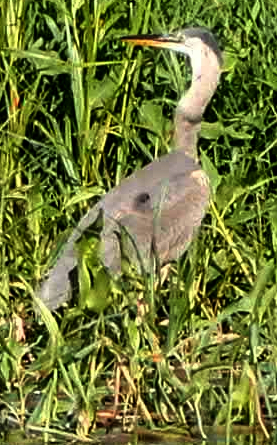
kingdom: Animalia
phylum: Chordata
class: Aves
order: Pelecaniformes
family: Ardeidae
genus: Ardea
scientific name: Ardea herodias
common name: Great blue heron
